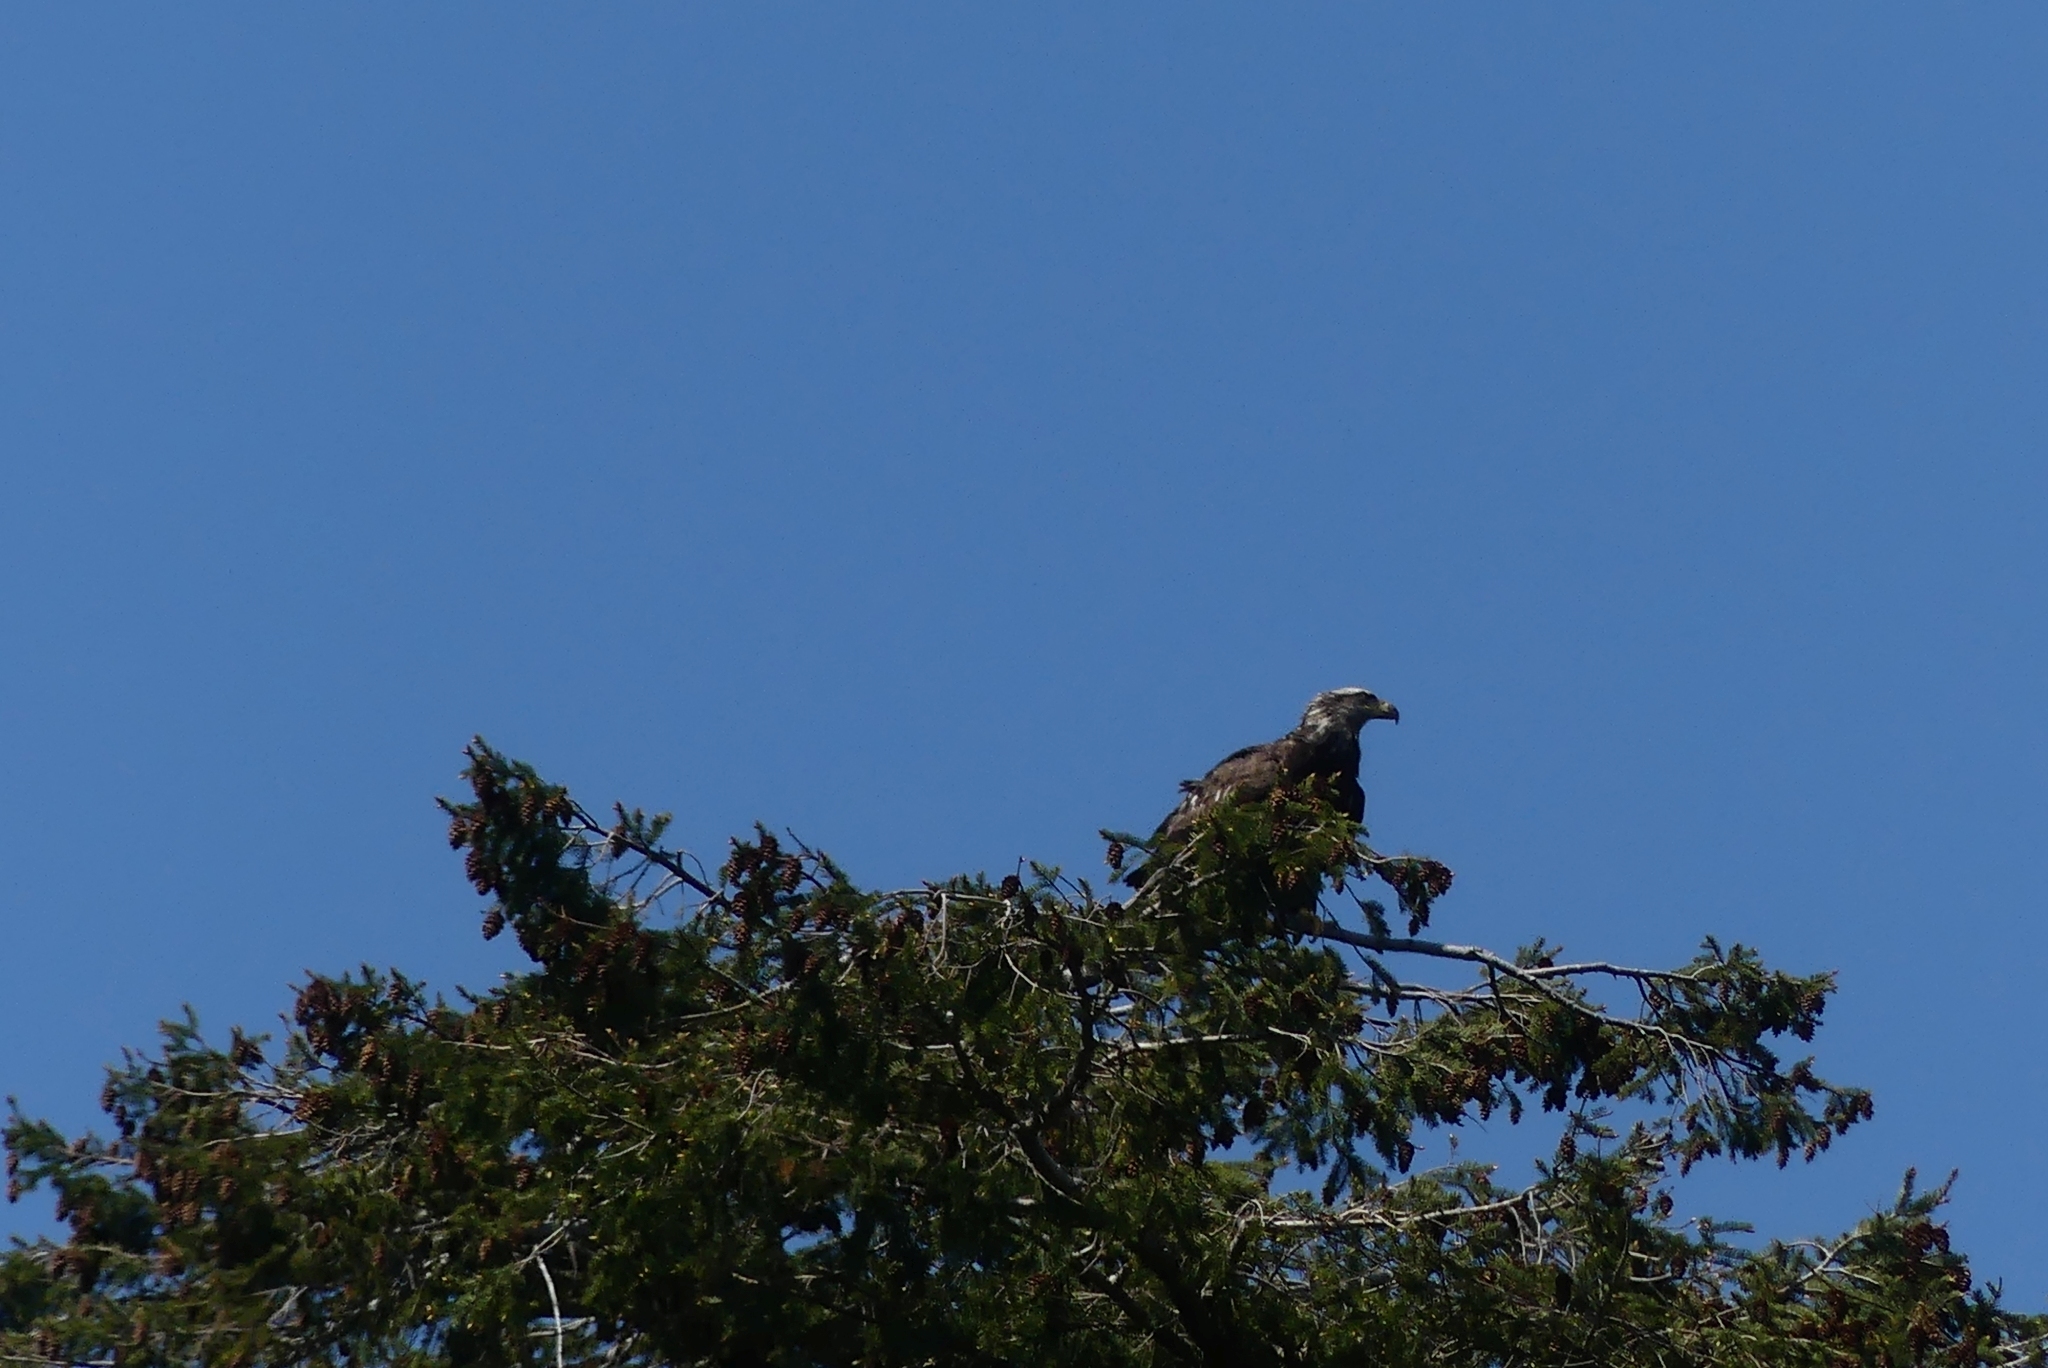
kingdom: Animalia
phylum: Chordata
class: Aves
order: Accipitriformes
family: Accipitridae
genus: Haliaeetus
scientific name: Haliaeetus leucocephalus
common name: Bald eagle
